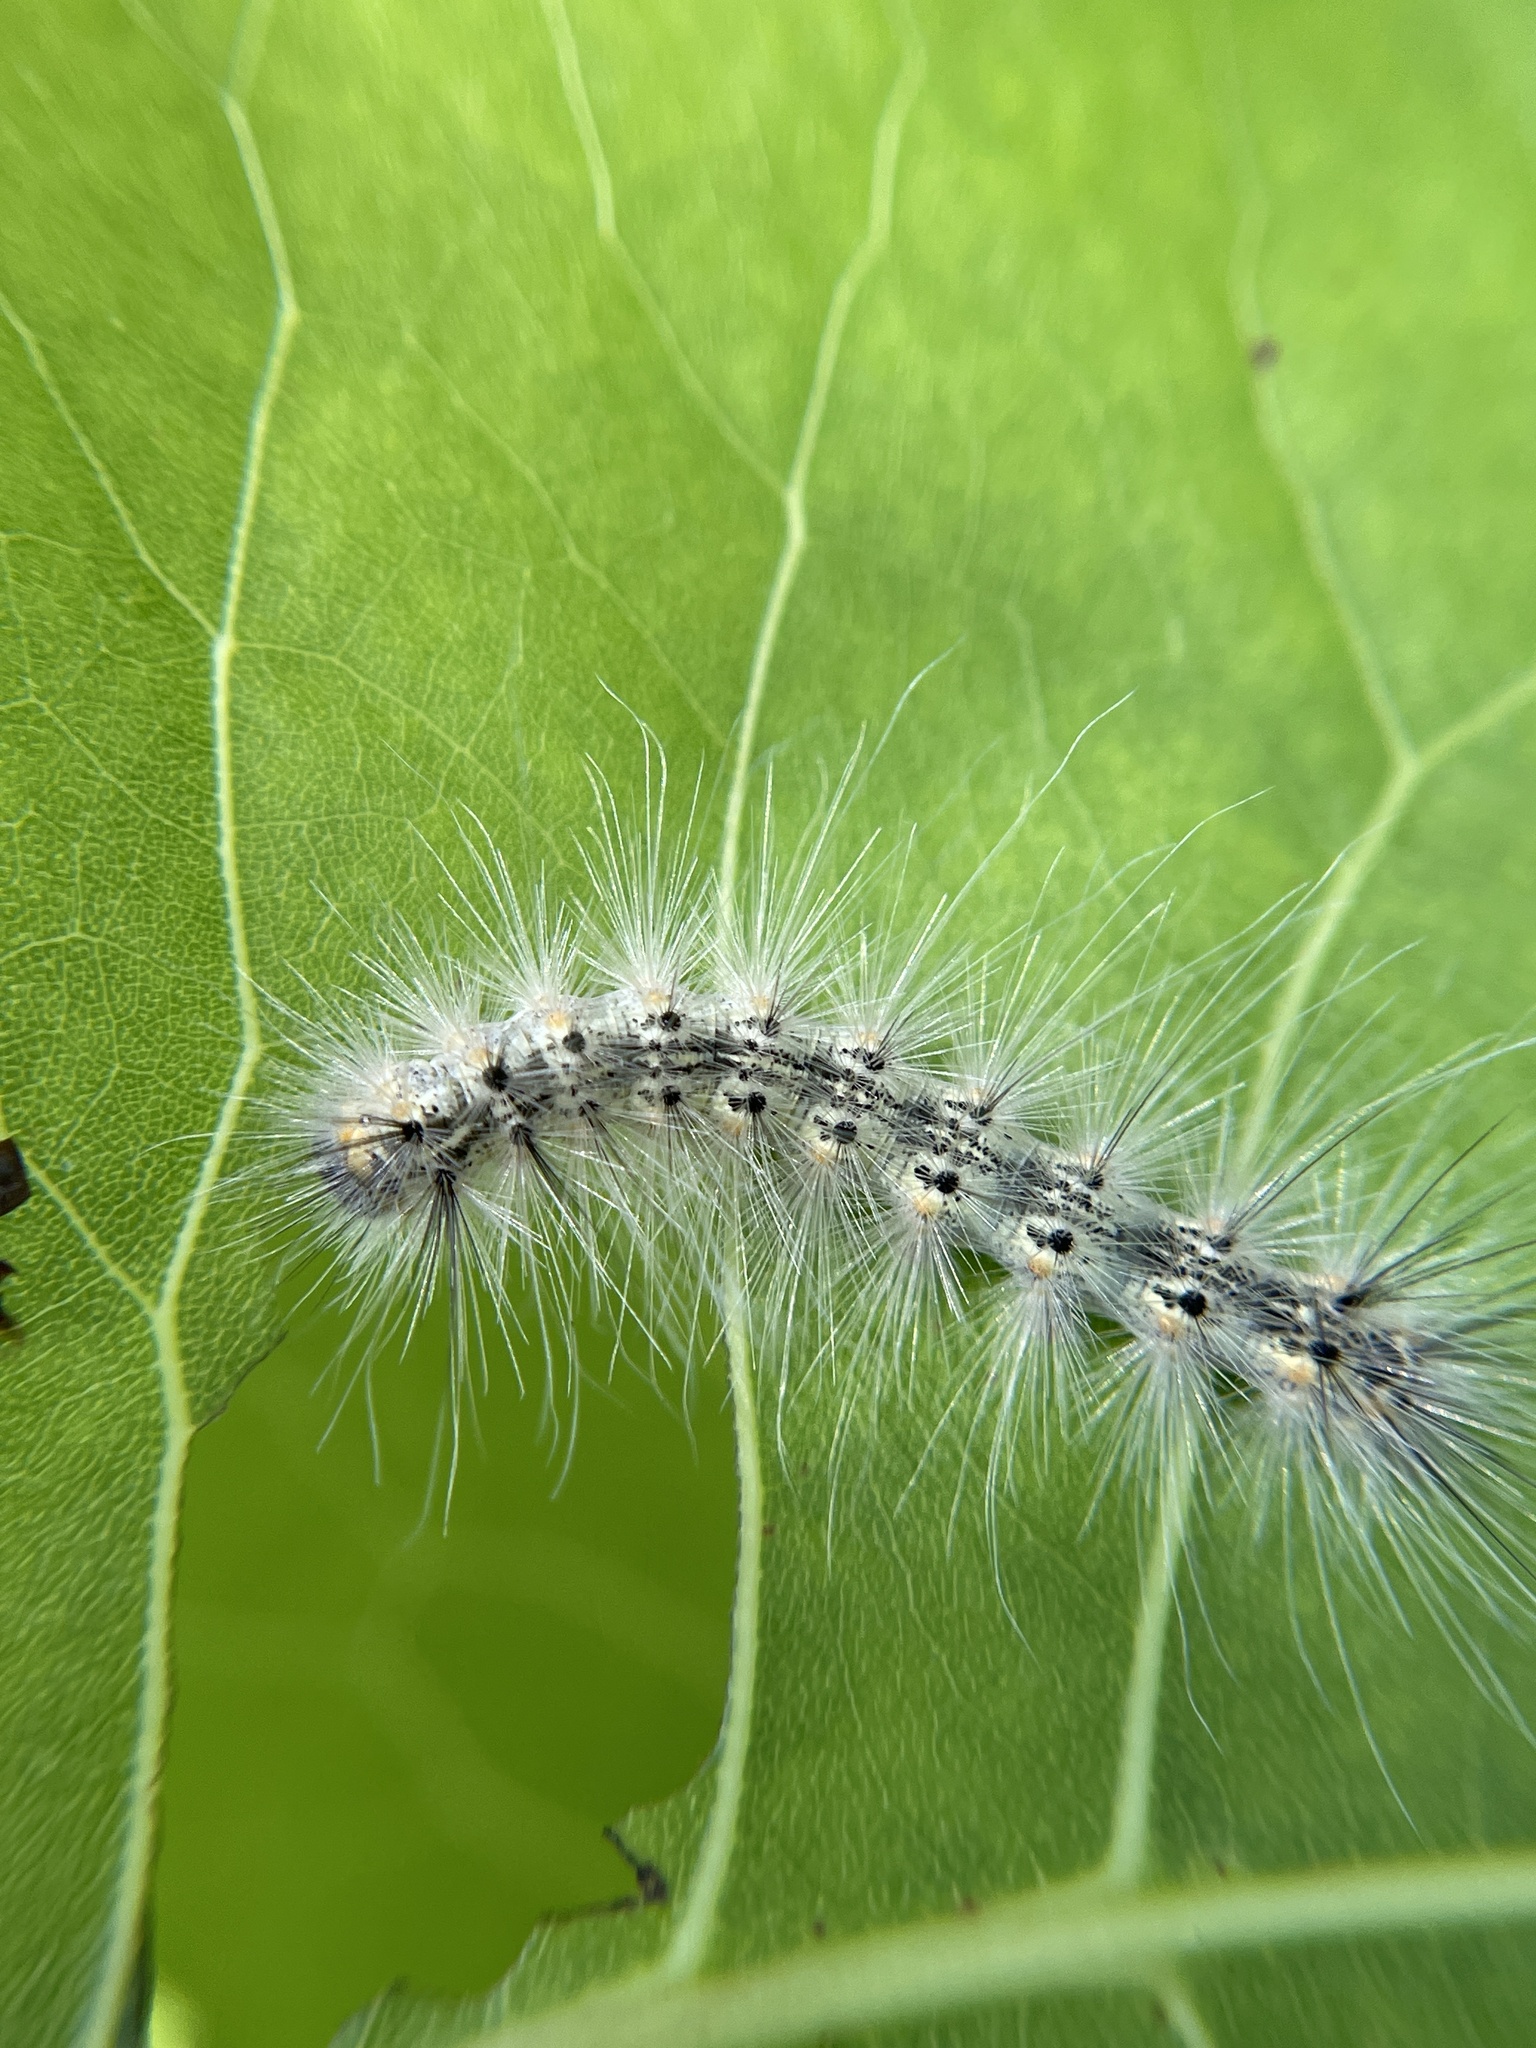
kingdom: Animalia
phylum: Arthropoda
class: Insecta
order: Lepidoptera
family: Erebidae
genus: Hyphantria
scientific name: Hyphantria cunea
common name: American white moth
